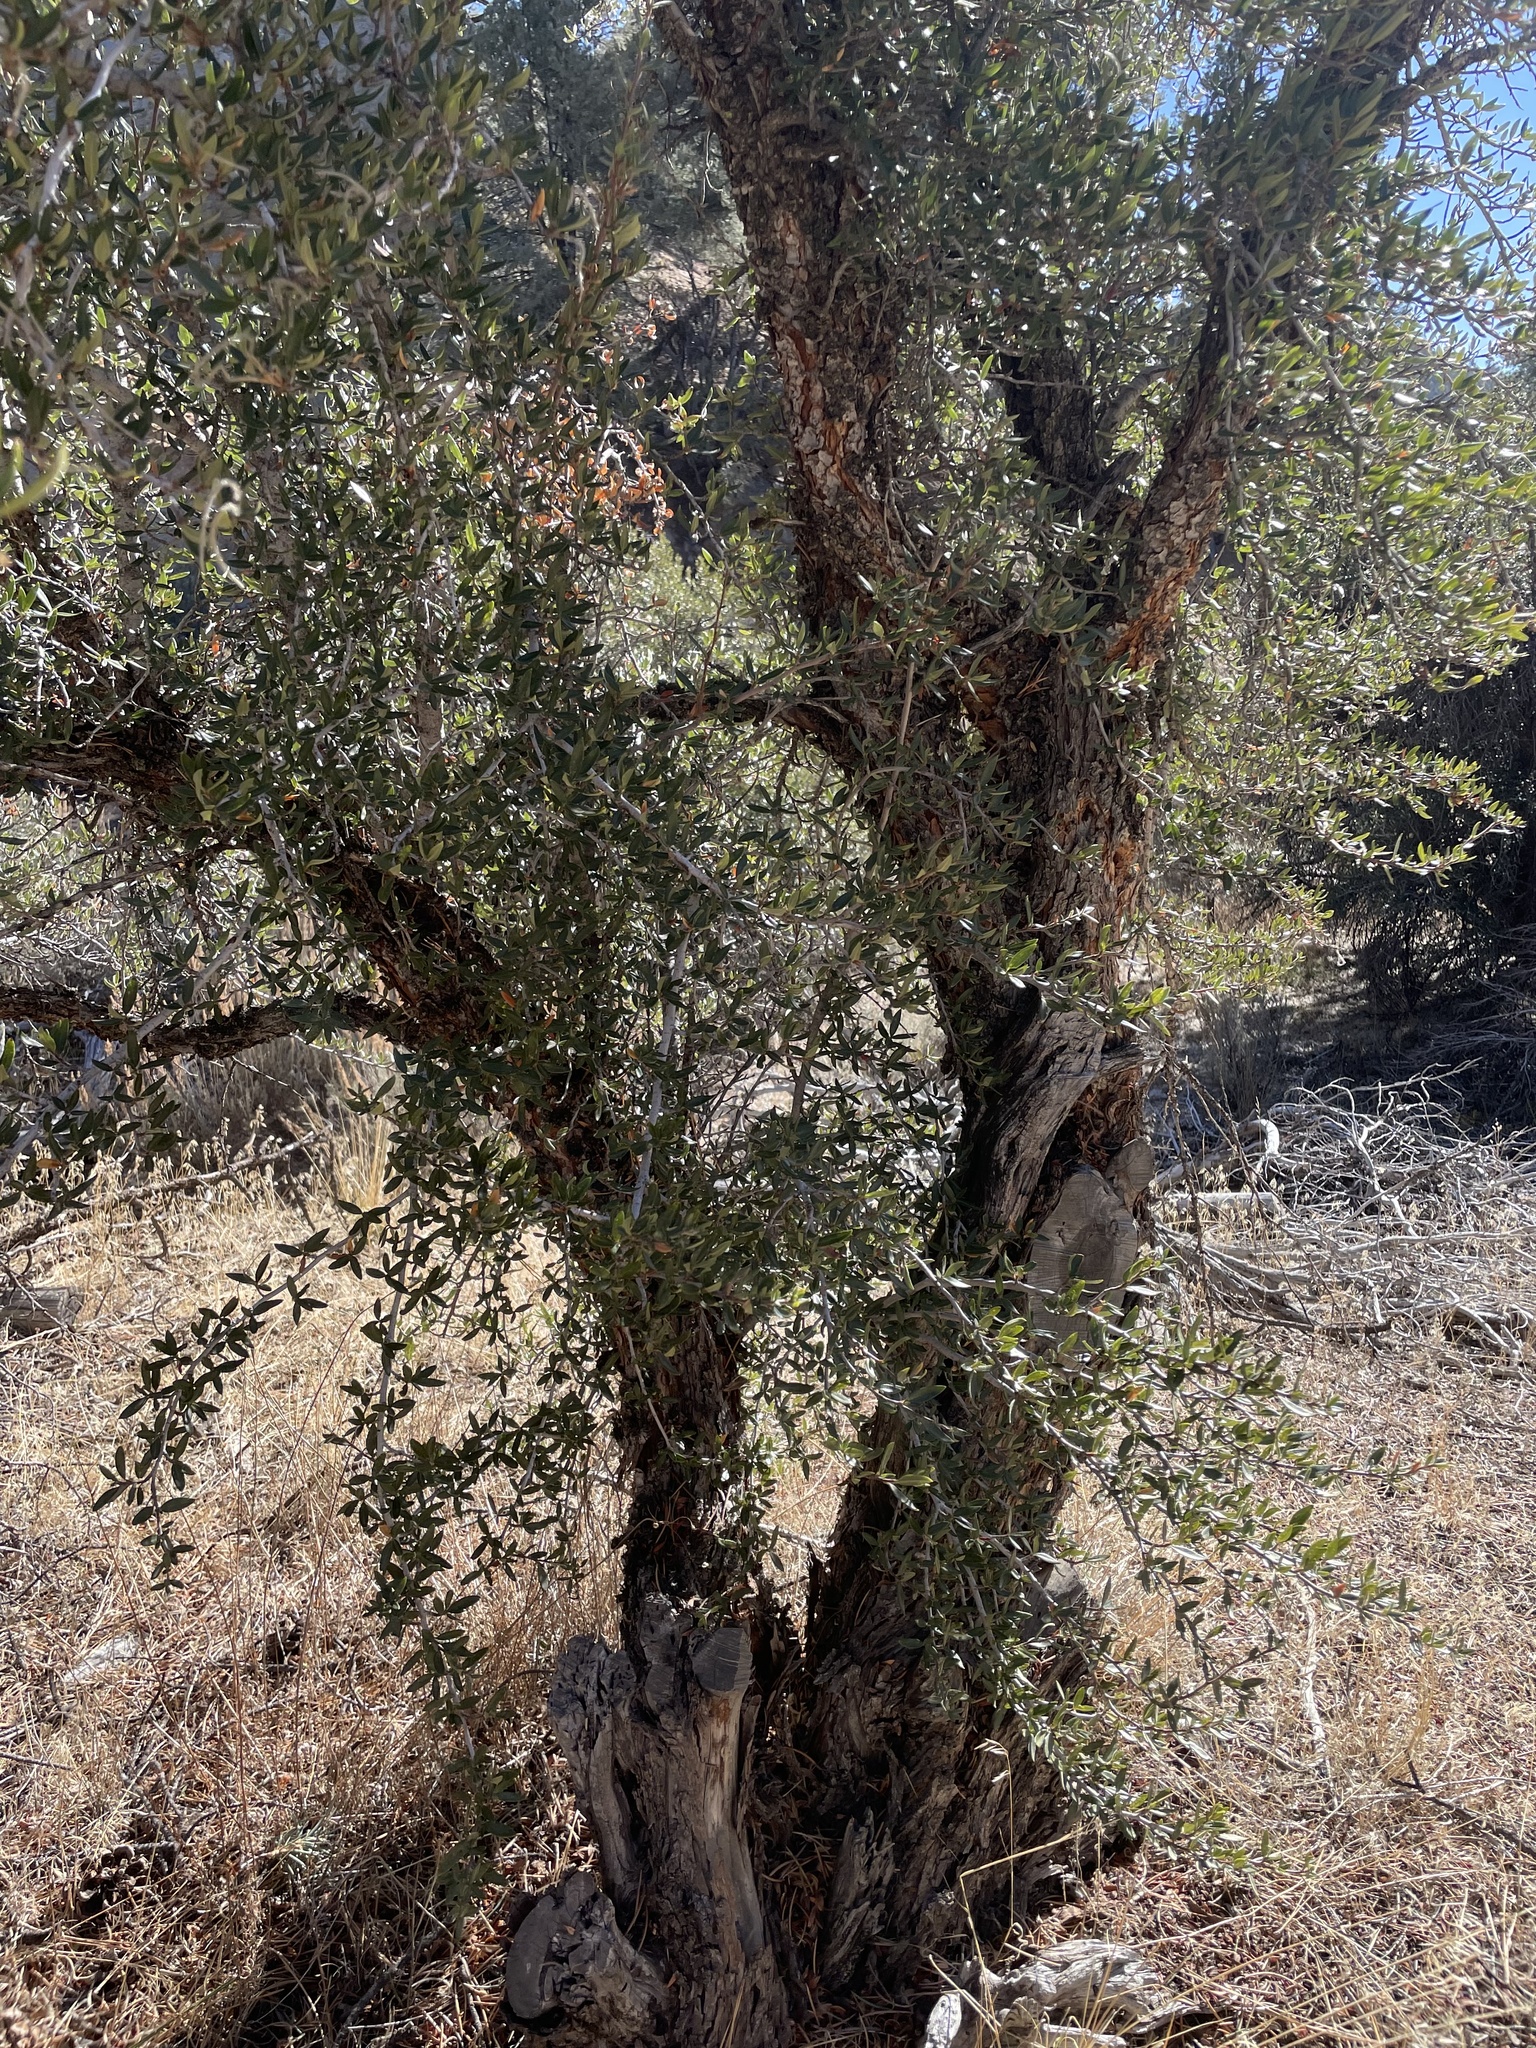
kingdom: Plantae
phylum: Tracheophyta
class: Magnoliopsida
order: Rosales
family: Rosaceae
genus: Cercocarpus
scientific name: Cercocarpus ledifolius
